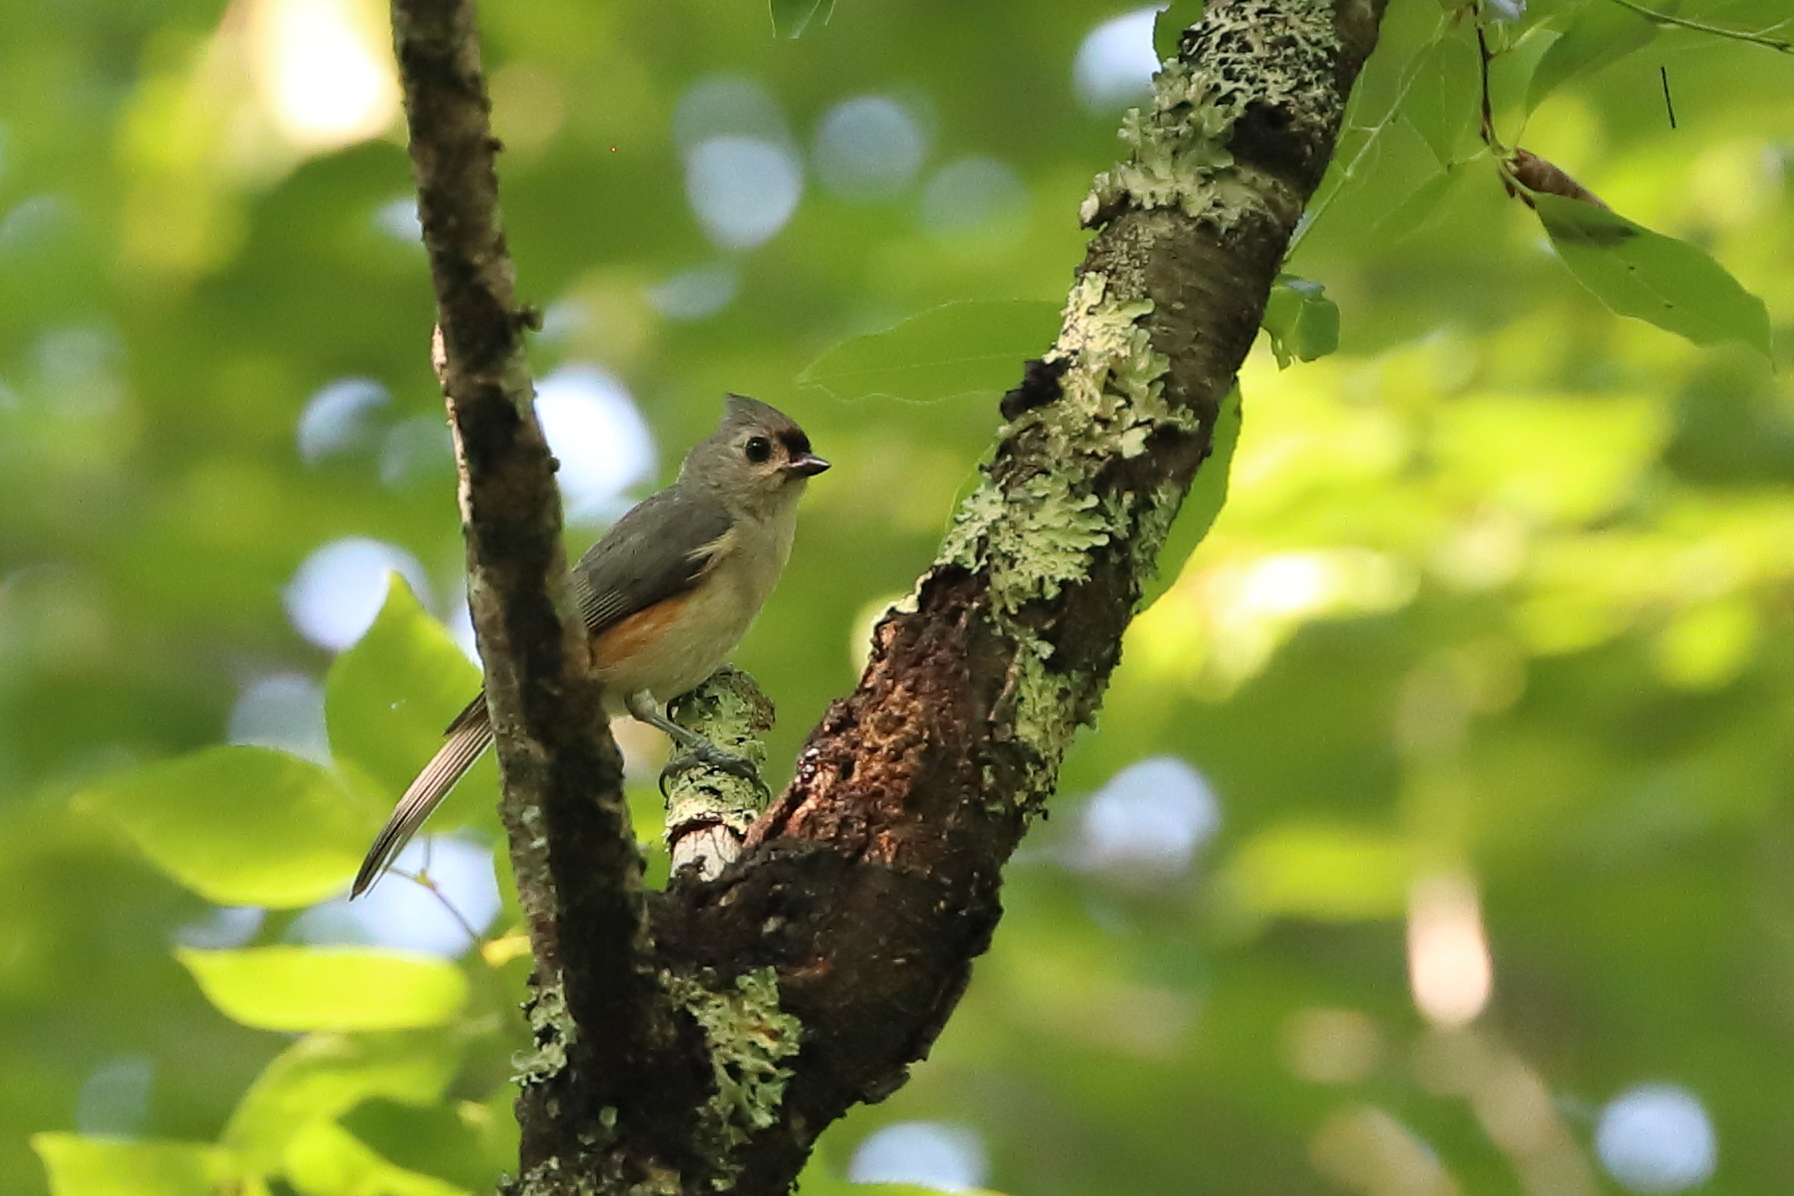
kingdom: Animalia
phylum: Chordata
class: Aves
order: Passeriformes
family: Paridae
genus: Baeolophus
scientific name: Baeolophus bicolor
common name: Tufted titmouse
